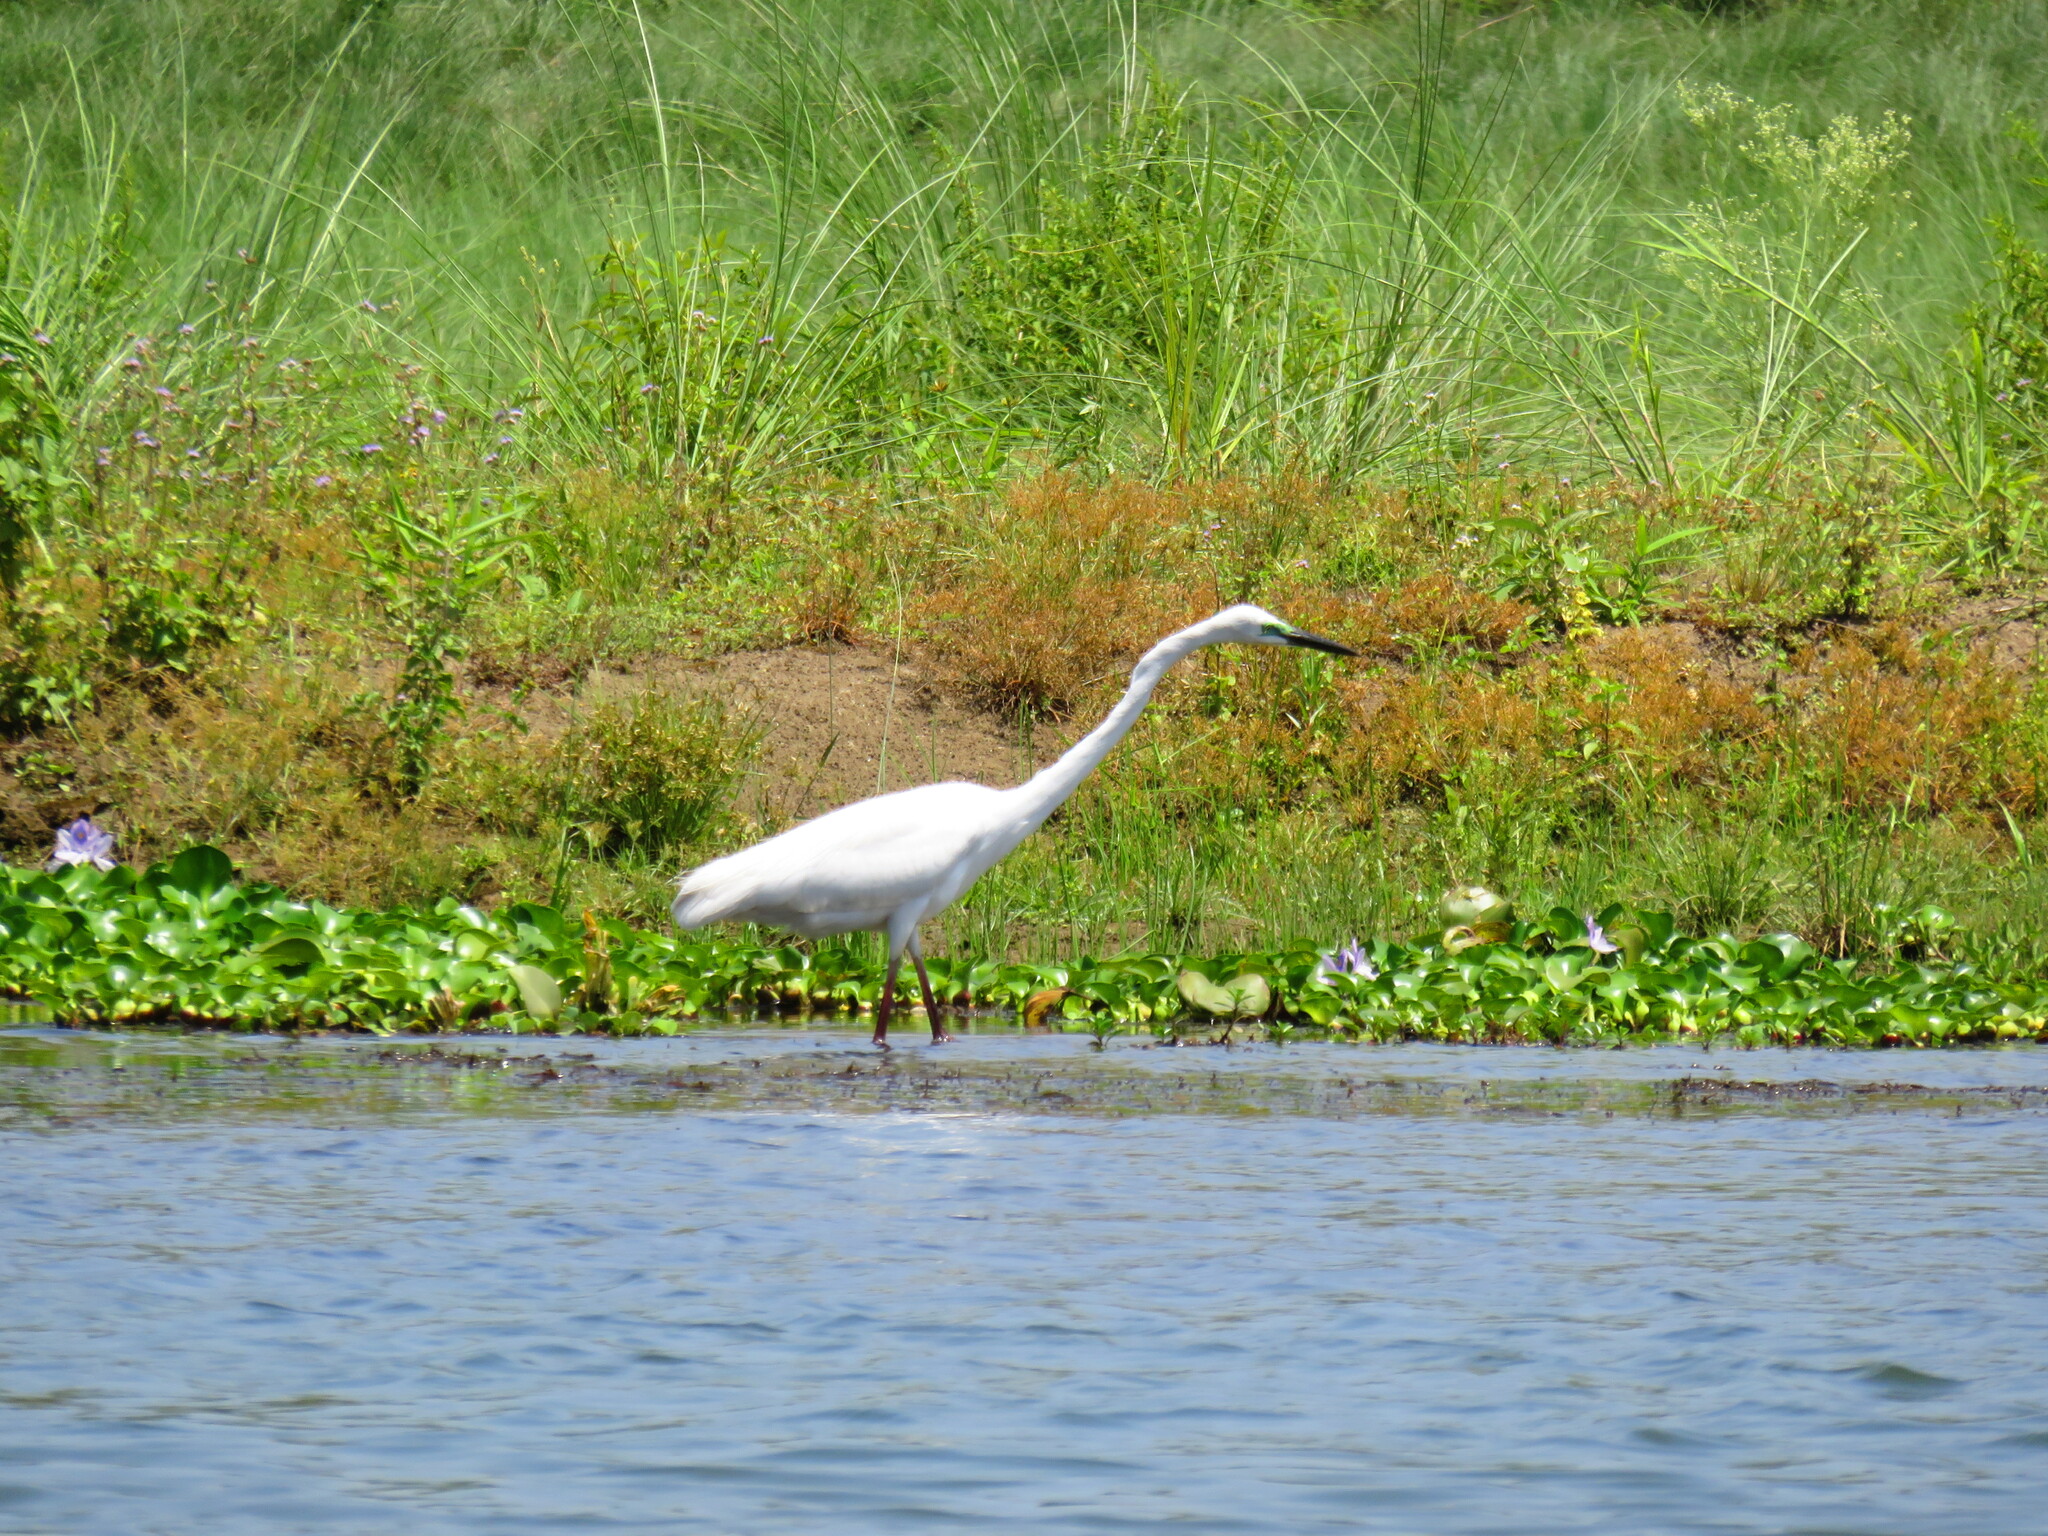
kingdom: Animalia
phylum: Chordata
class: Aves
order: Pelecaniformes
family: Ardeidae
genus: Ardea
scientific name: Ardea alba
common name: Great egret
